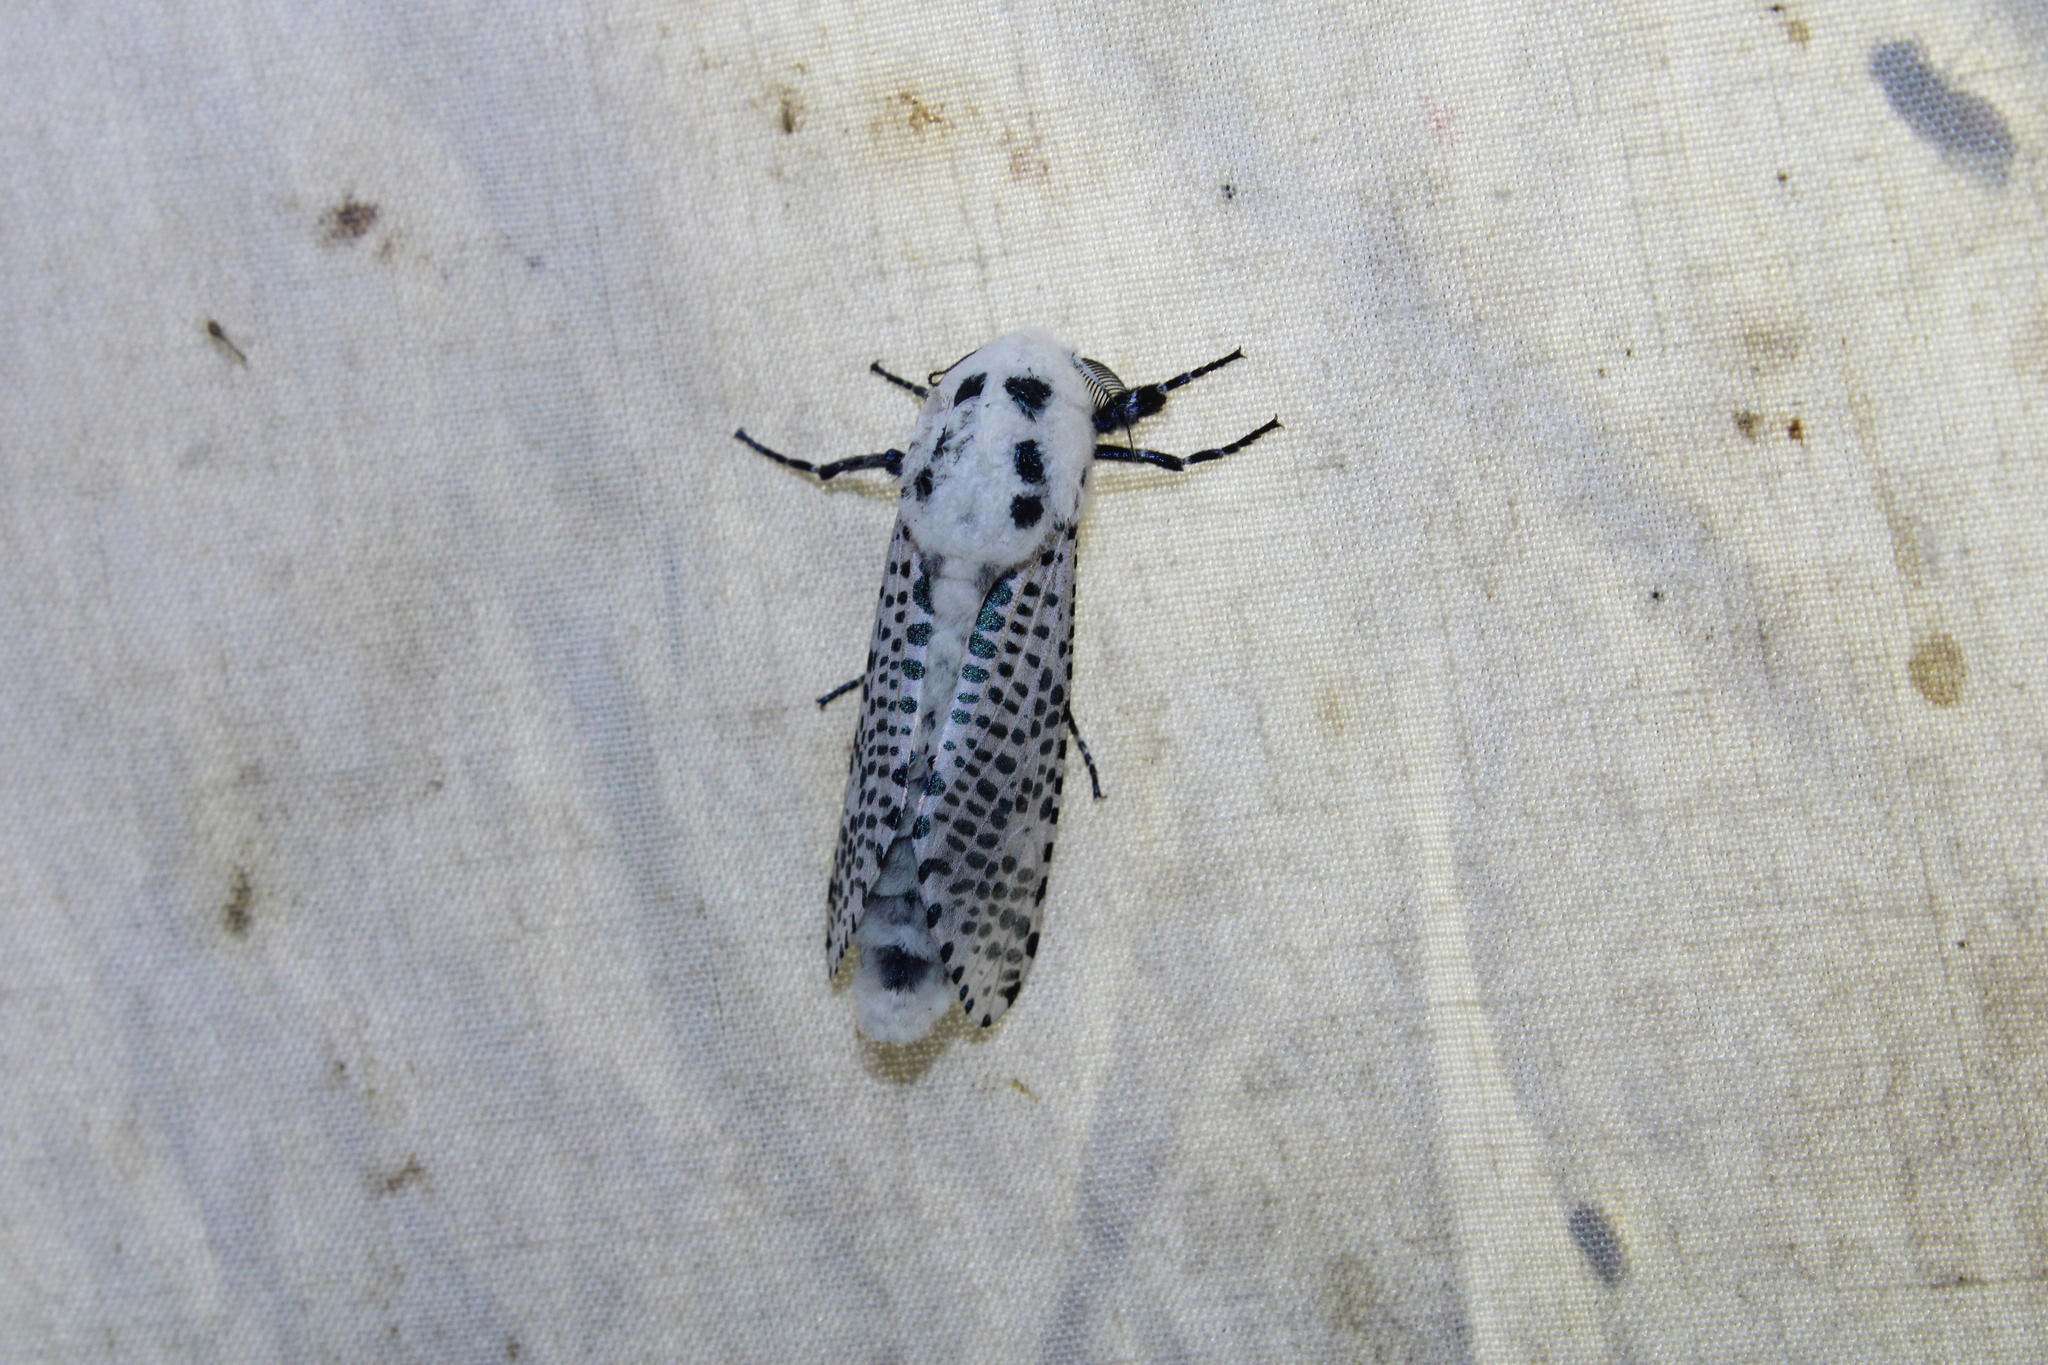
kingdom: Animalia
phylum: Arthropoda
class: Insecta
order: Lepidoptera
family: Cossidae
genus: Zeuzera
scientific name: Zeuzera pyrina
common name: Leopard moth
